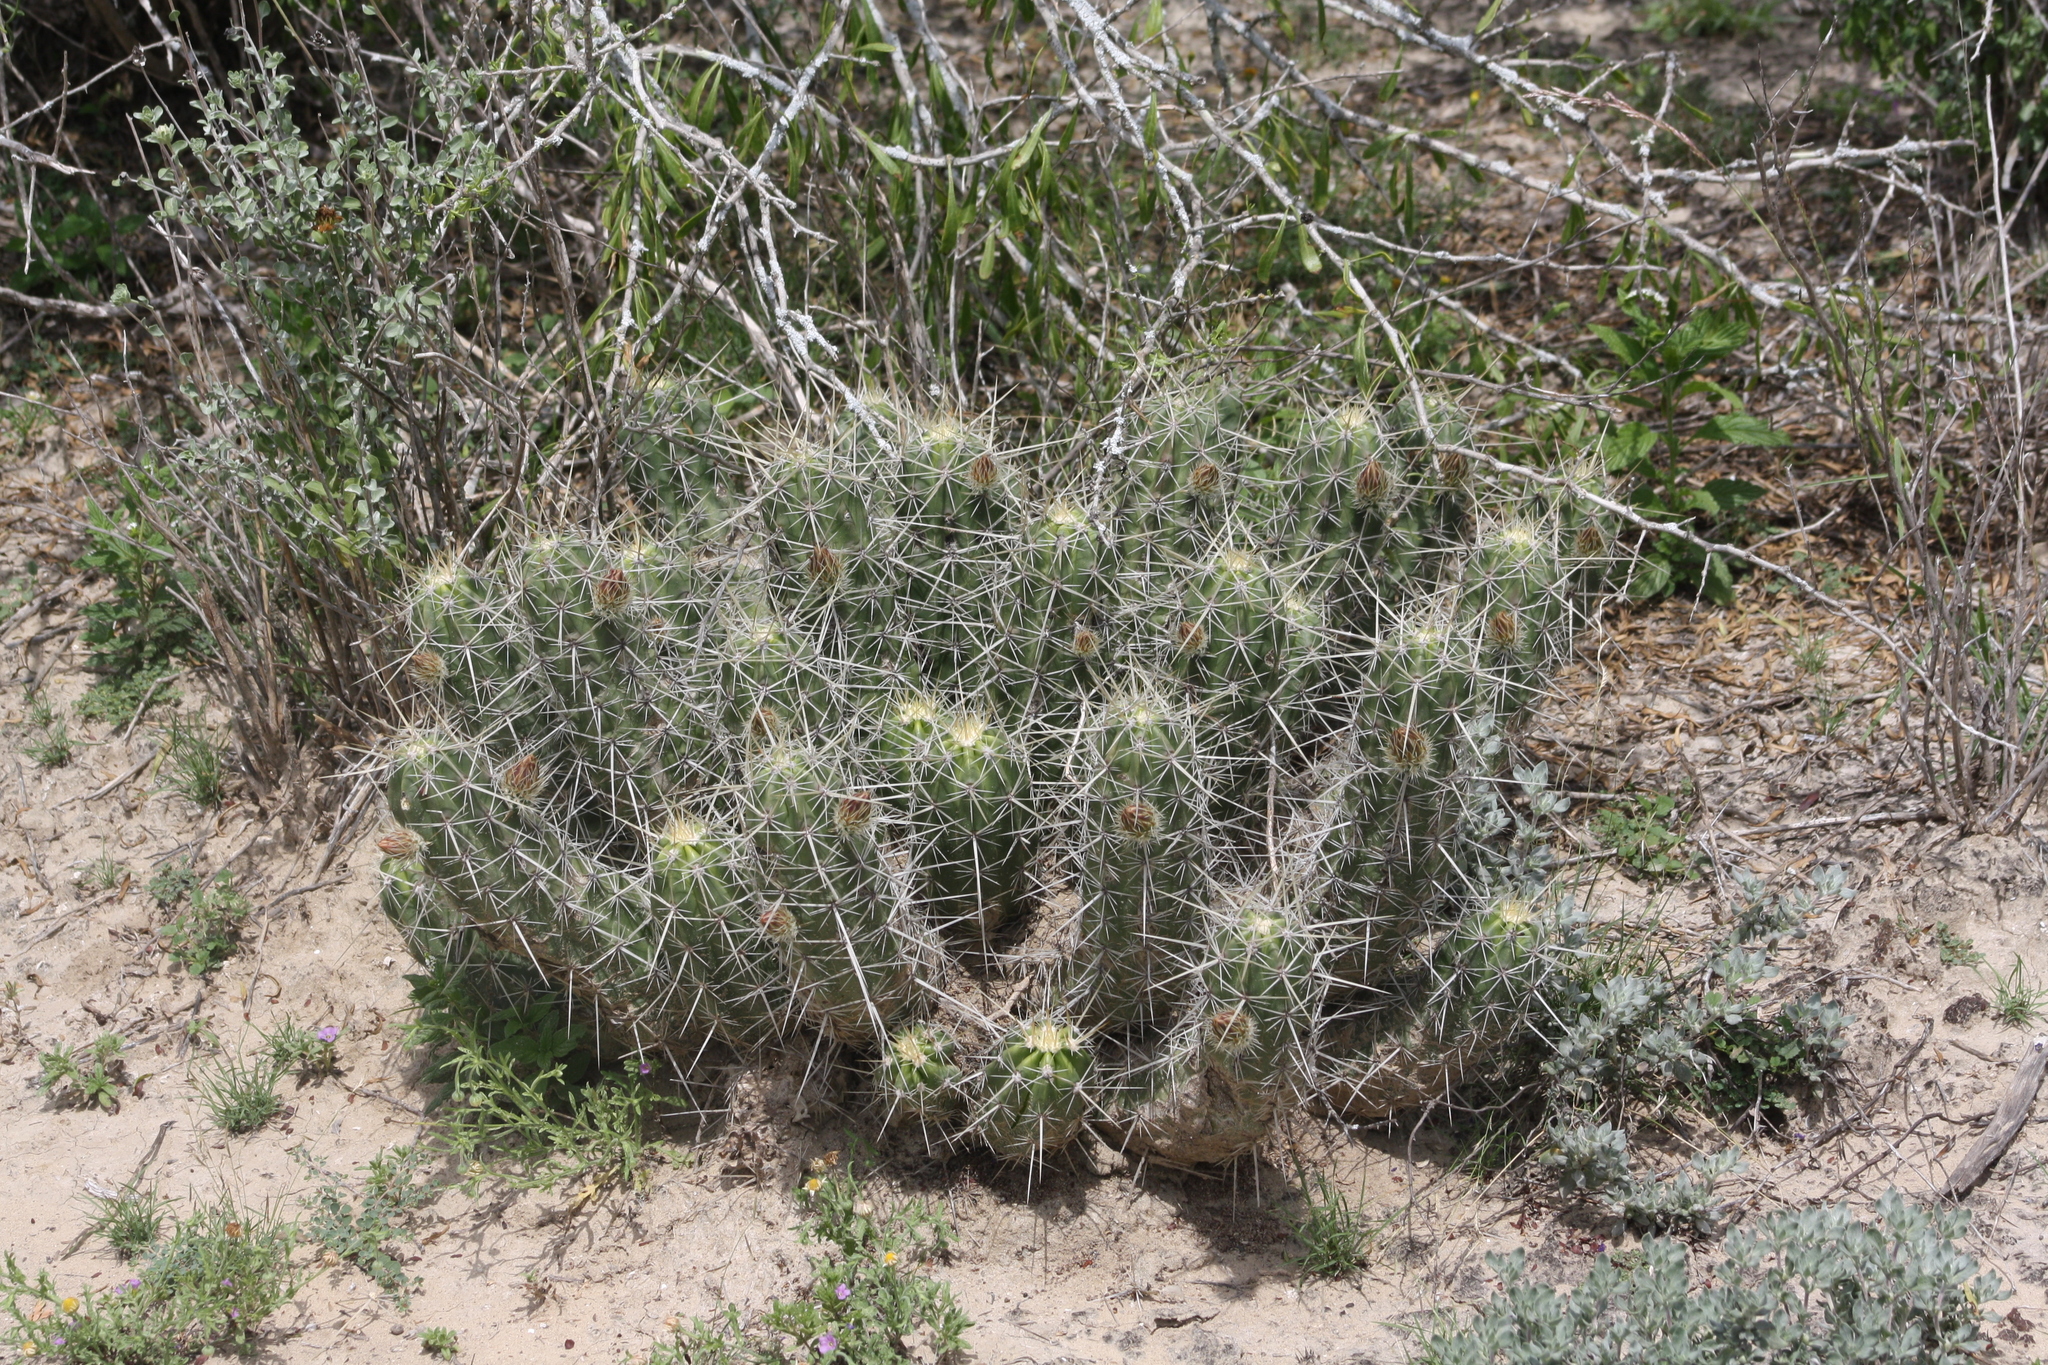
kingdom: Plantae
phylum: Tracheophyta
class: Magnoliopsida
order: Caryophyllales
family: Cactaceae
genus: Echinocereus
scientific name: Echinocereus enneacanthus
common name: Pitaya
